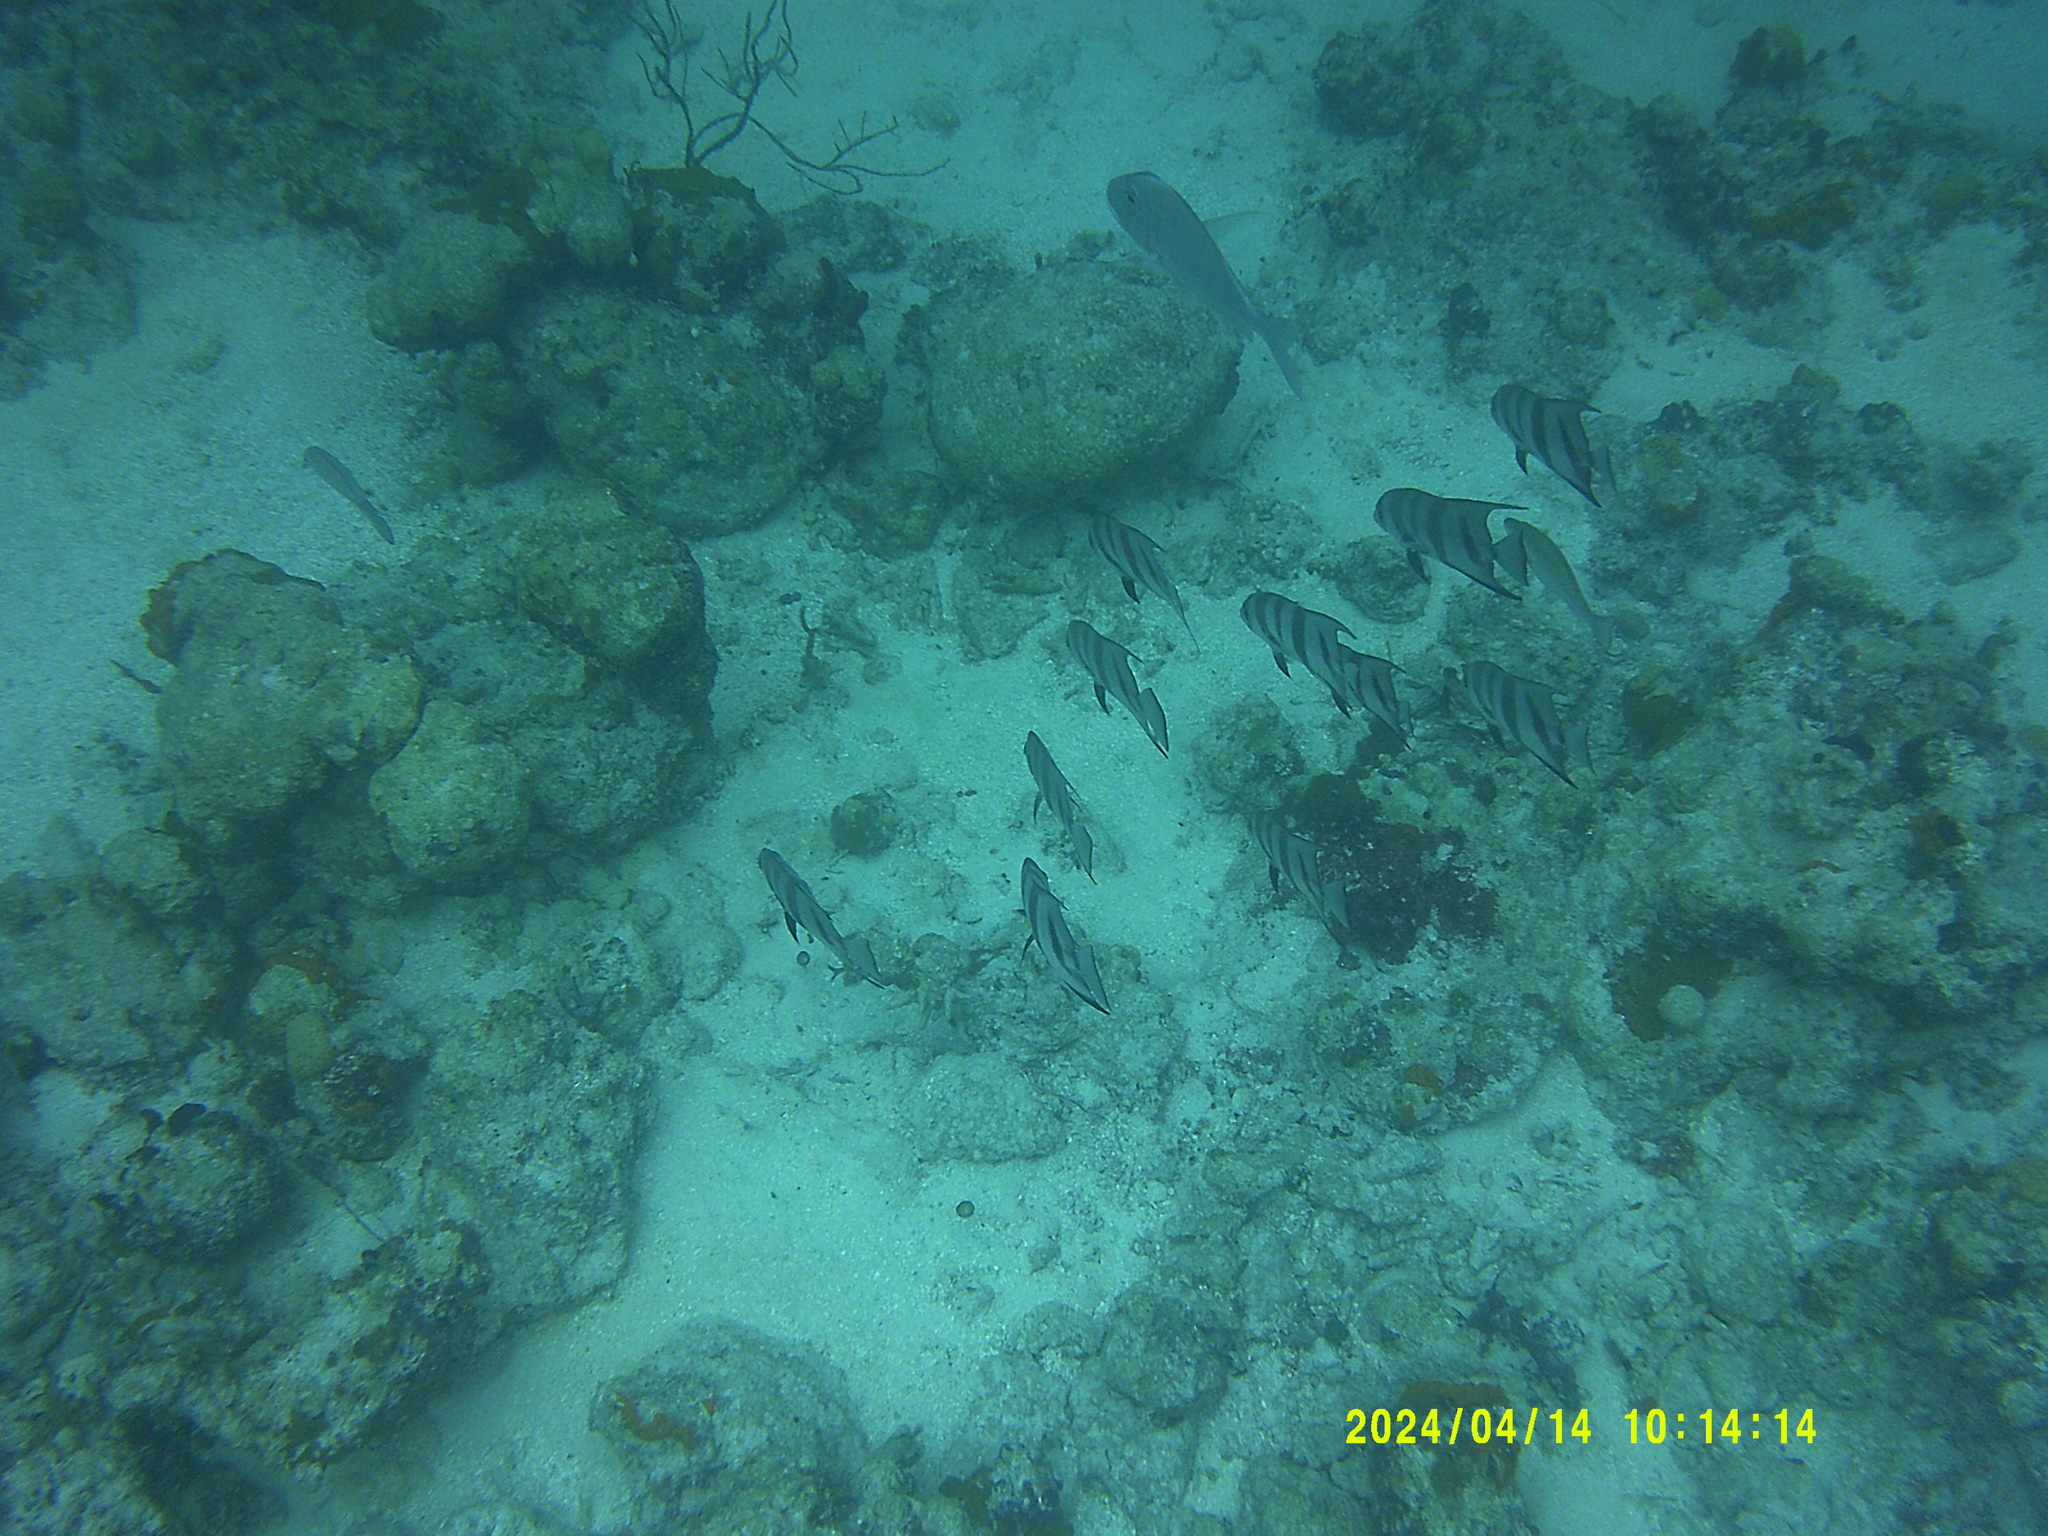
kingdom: Animalia
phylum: Chordata
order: Perciformes
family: Ephippidae
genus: Chaetodipterus
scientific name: Chaetodipterus faber
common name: Ocean cobbler
